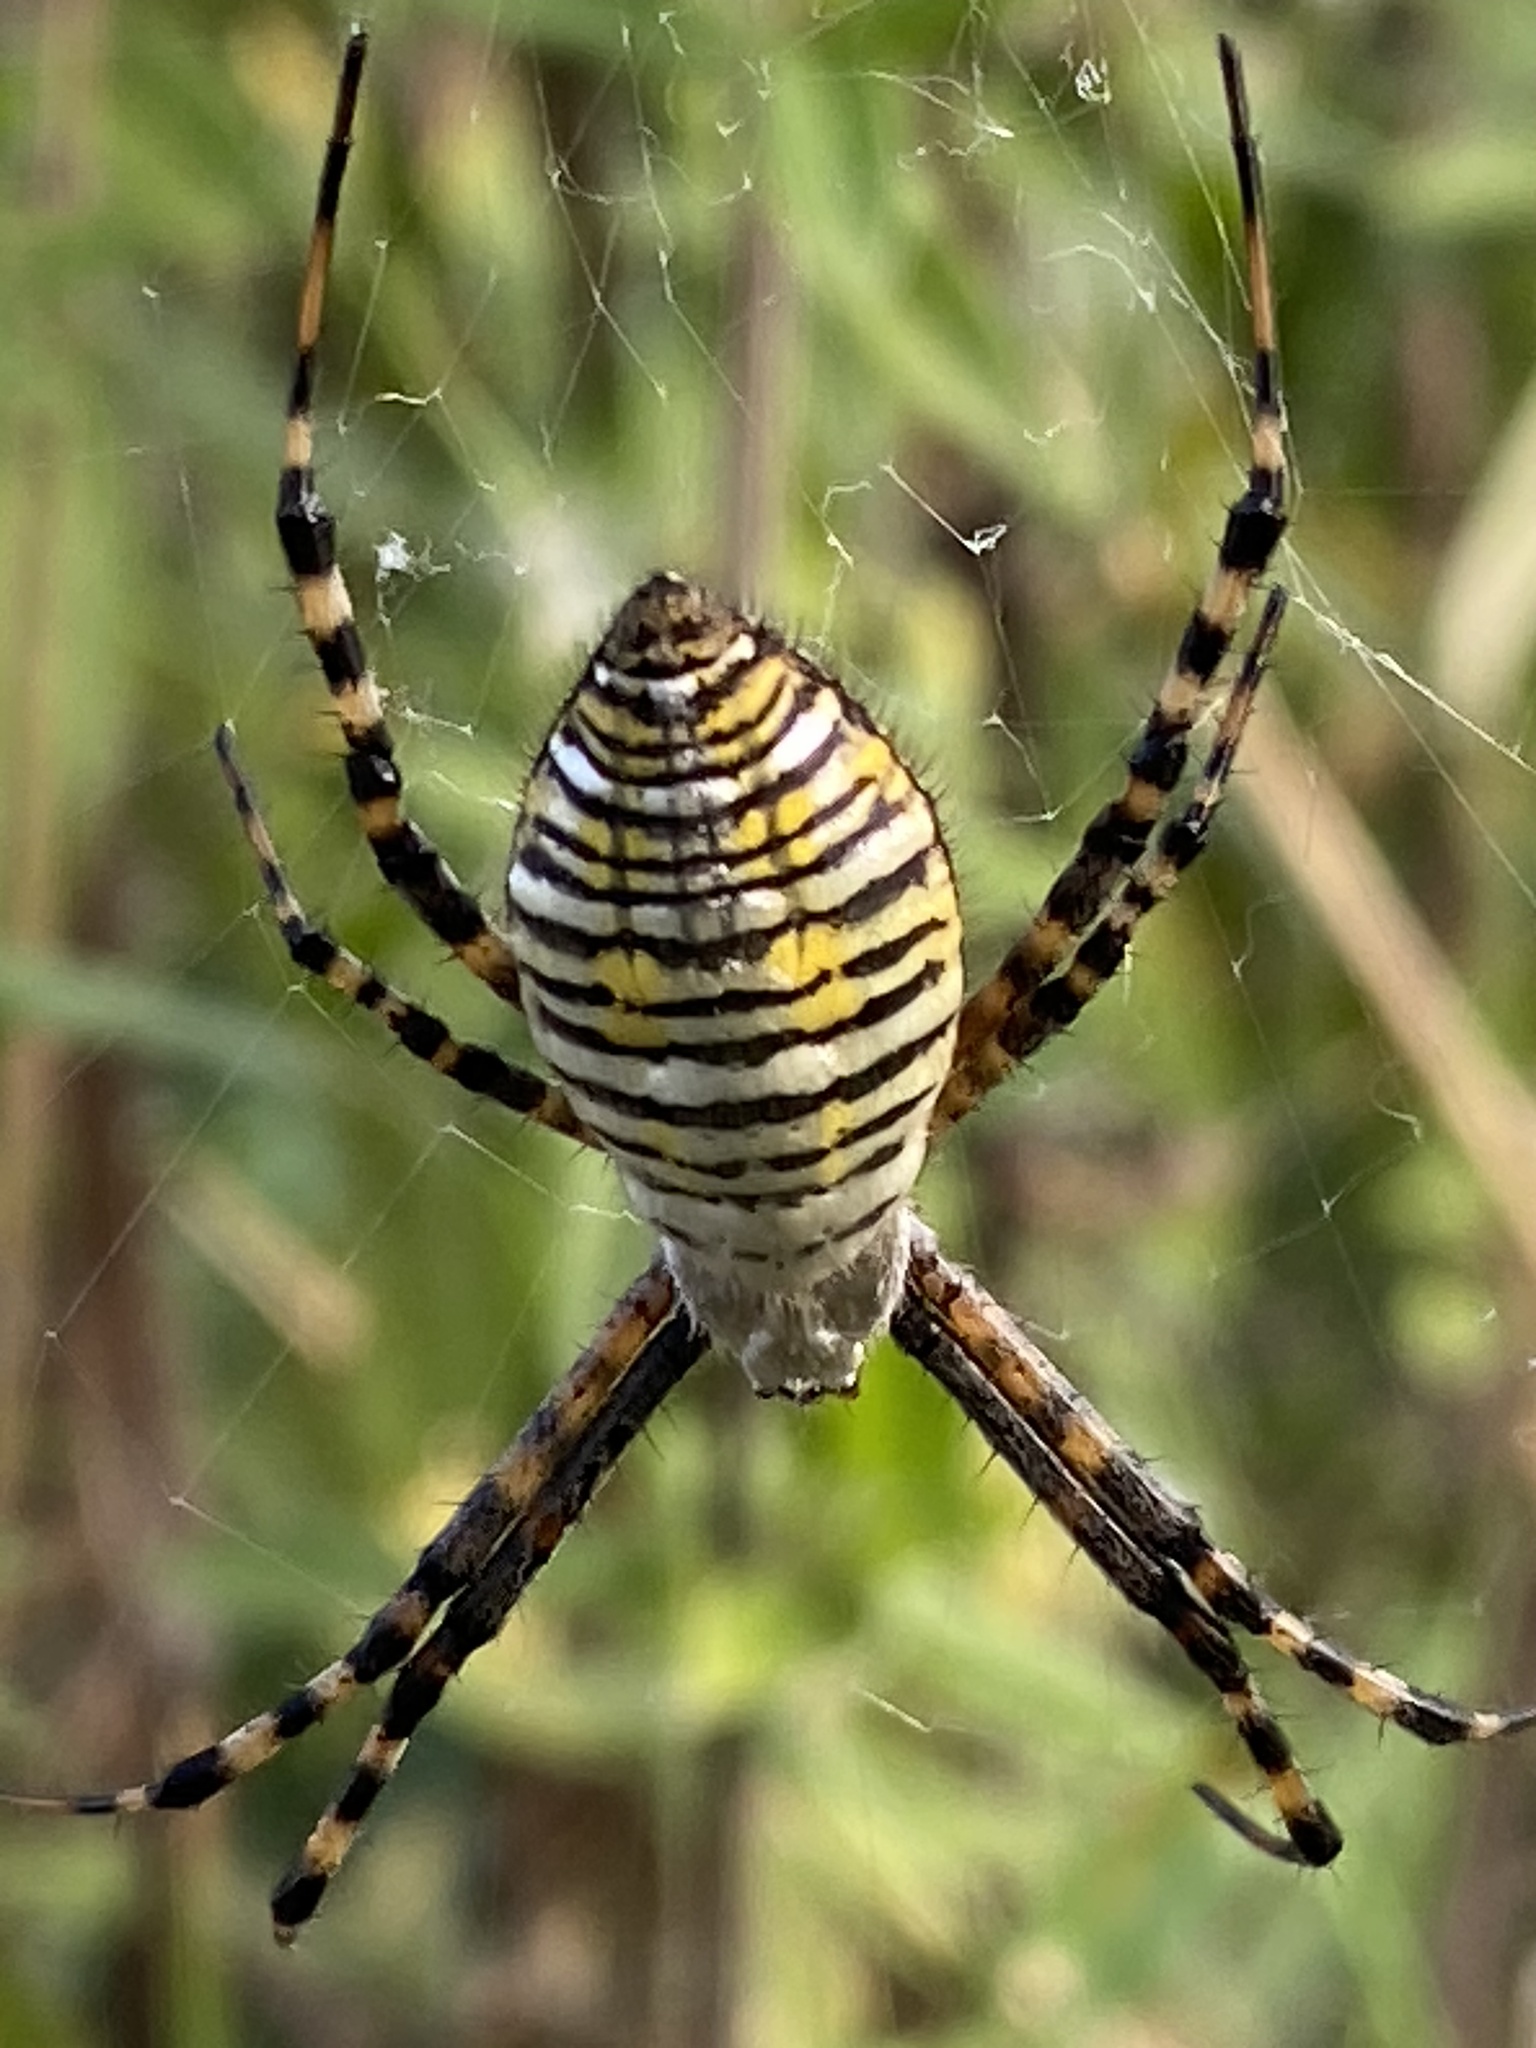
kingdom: Animalia
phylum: Arthropoda
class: Arachnida
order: Araneae
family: Araneidae
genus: Argiope
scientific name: Argiope trifasciata
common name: Banded garden spider
